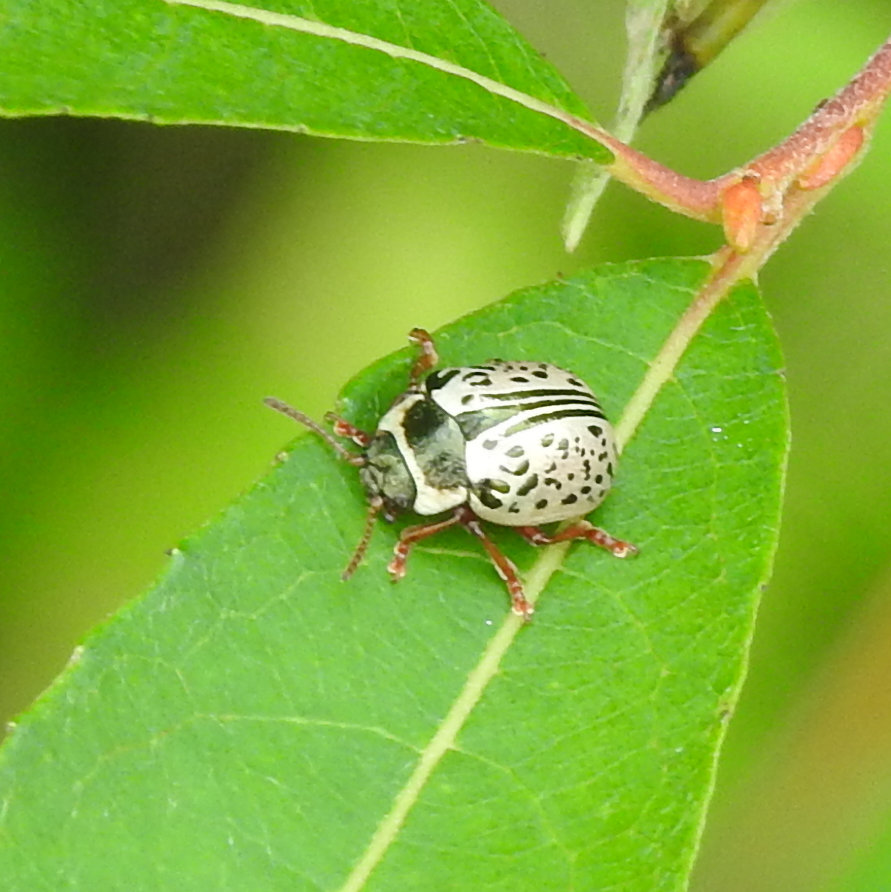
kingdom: Animalia
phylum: Arthropoda
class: Insecta
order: Coleoptera
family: Chrysomelidae
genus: Calligrapha
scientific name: Calligrapha multipunctata
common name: Common willow calligrapher beetle
